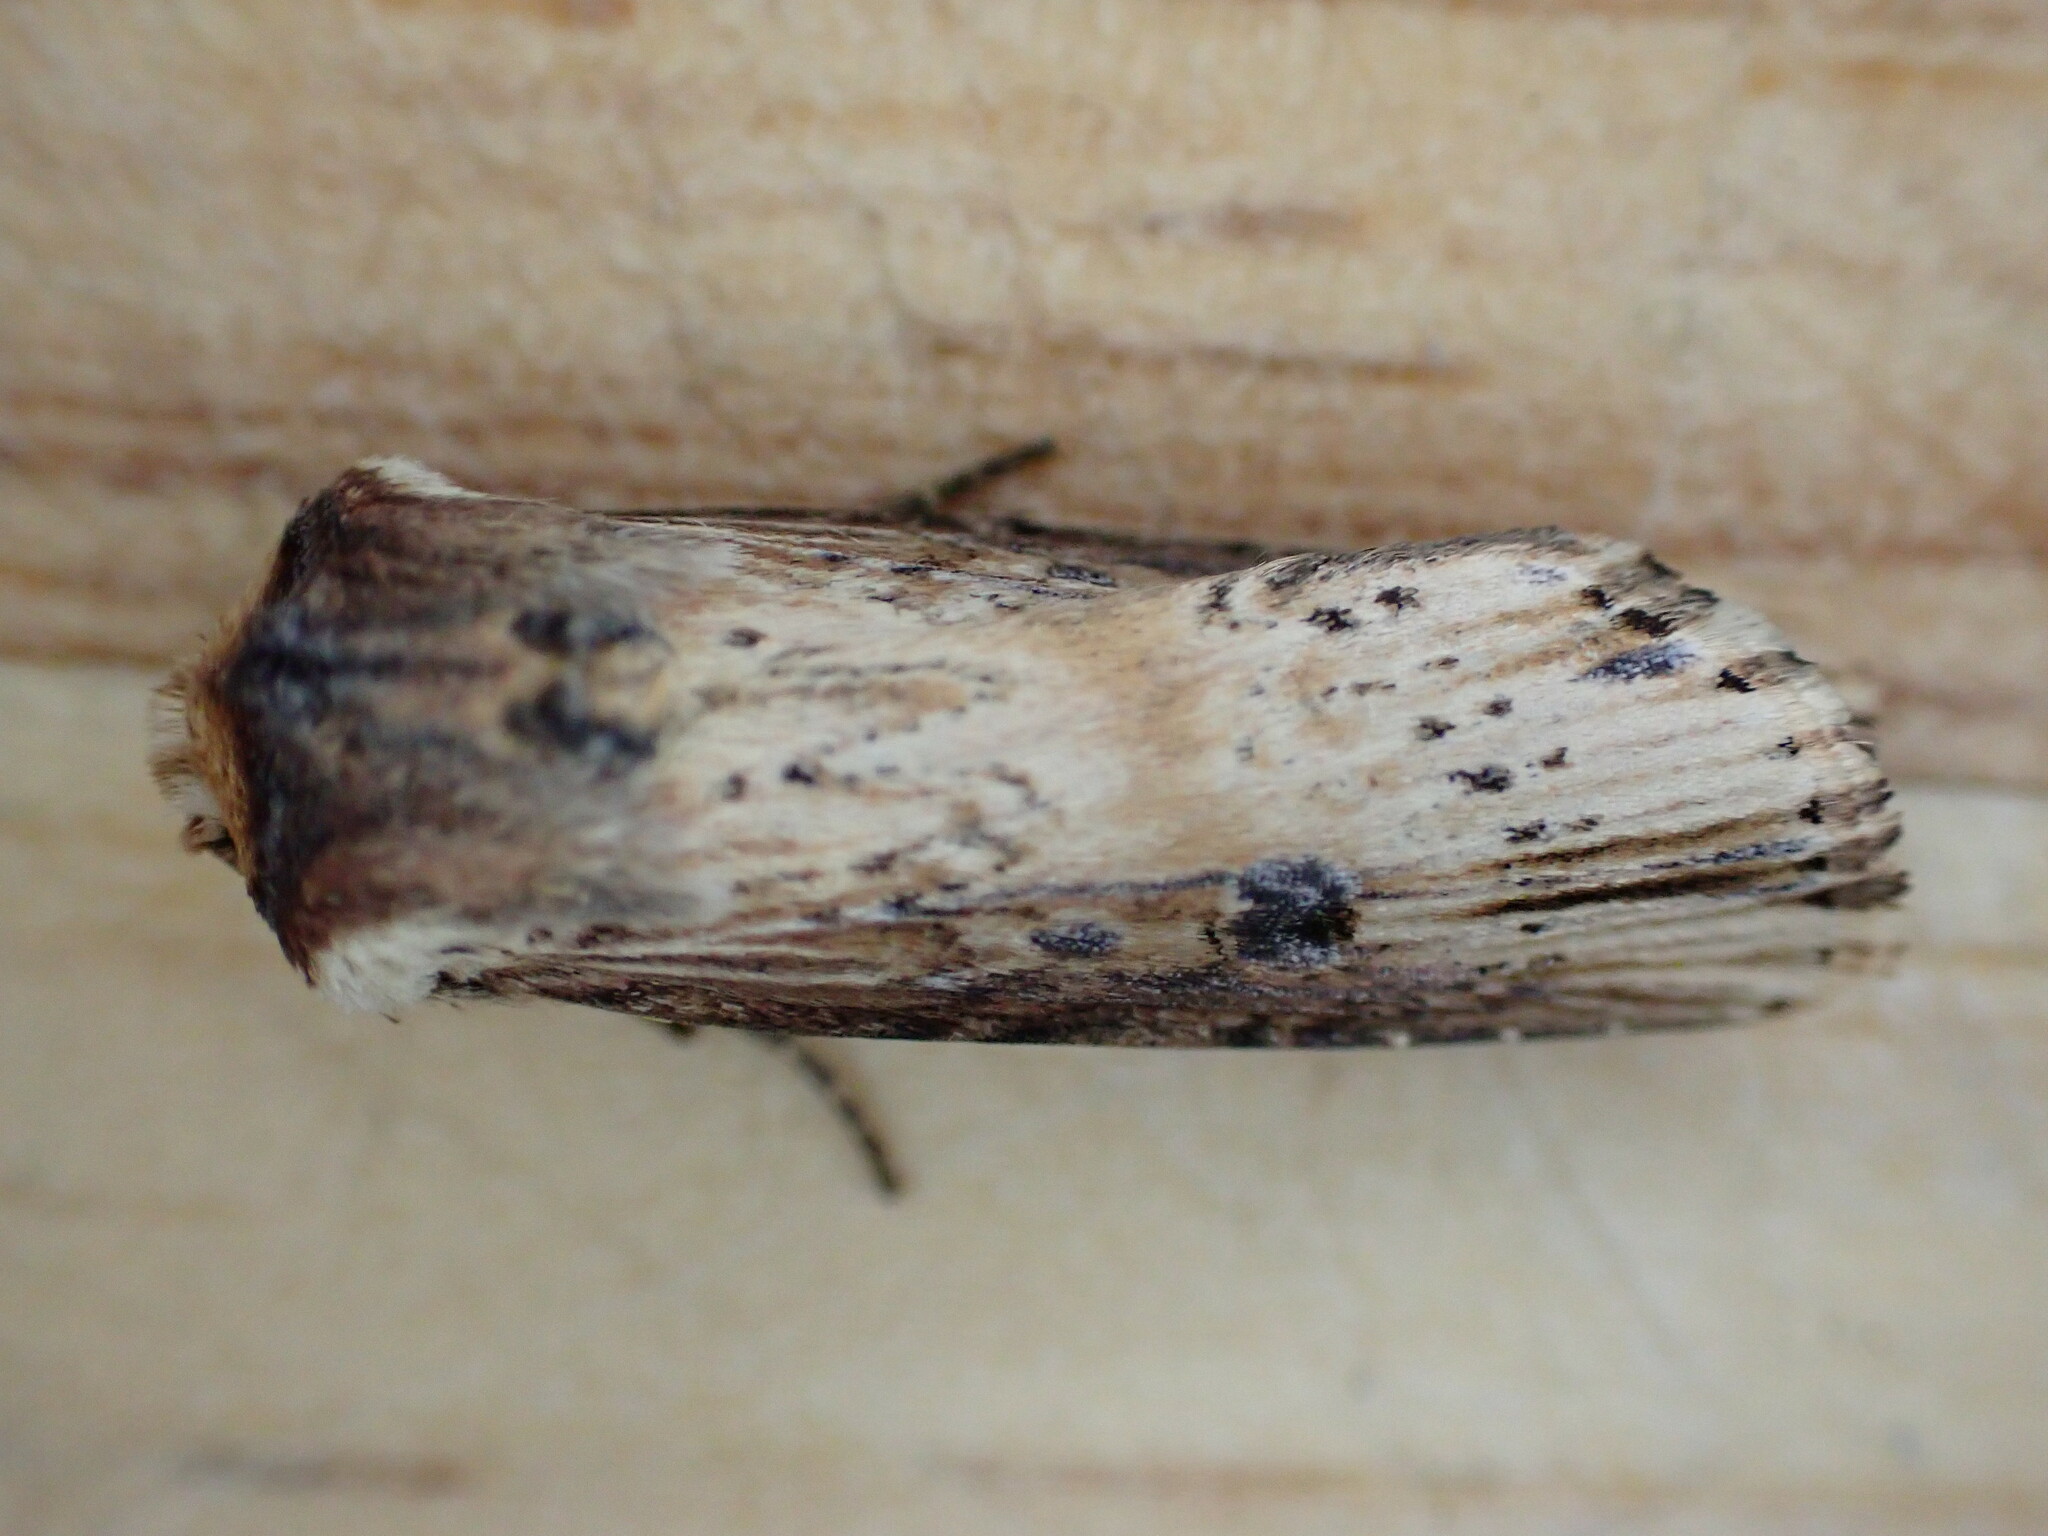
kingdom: Animalia
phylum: Arthropoda
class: Insecta
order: Lepidoptera
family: Noctuidae
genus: Axylia
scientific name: Axylia putris
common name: Flame
